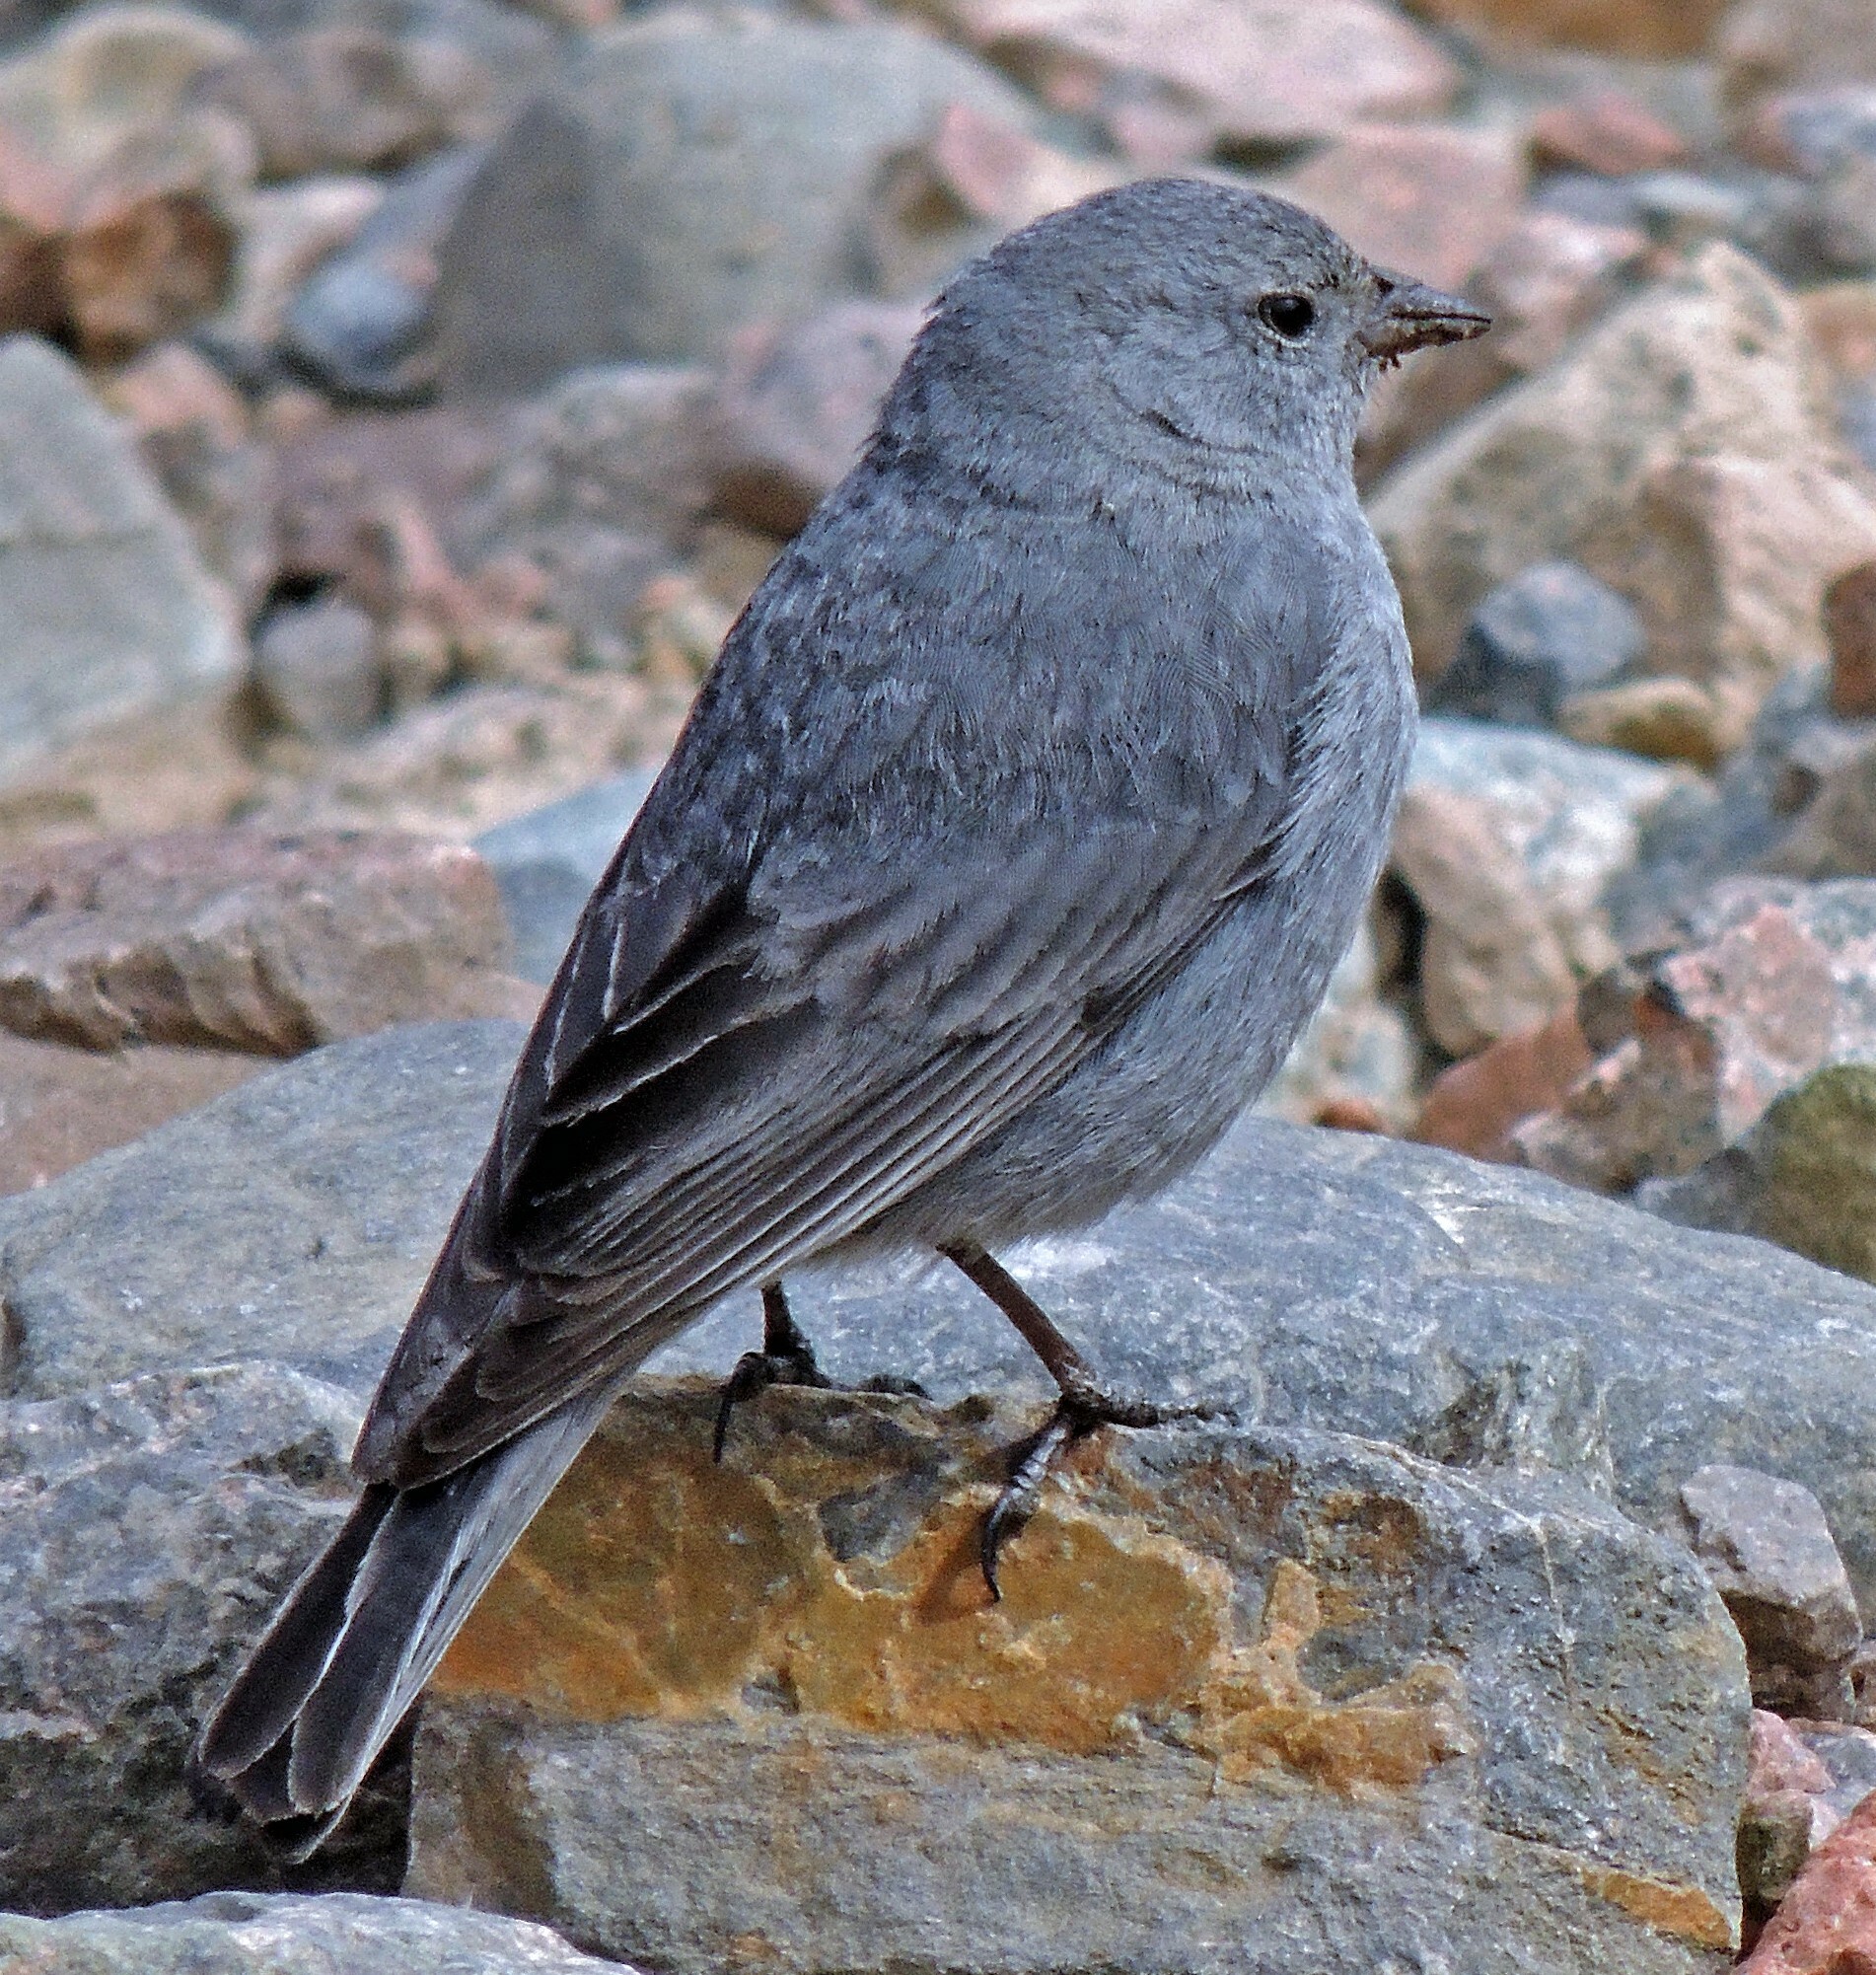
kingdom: Animalia
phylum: Chordata
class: Aves
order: Passeriformes
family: Thraupidae
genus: Geospizopsis
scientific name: Geospizopsis unicolor
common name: Plumbeous sierra-finch
